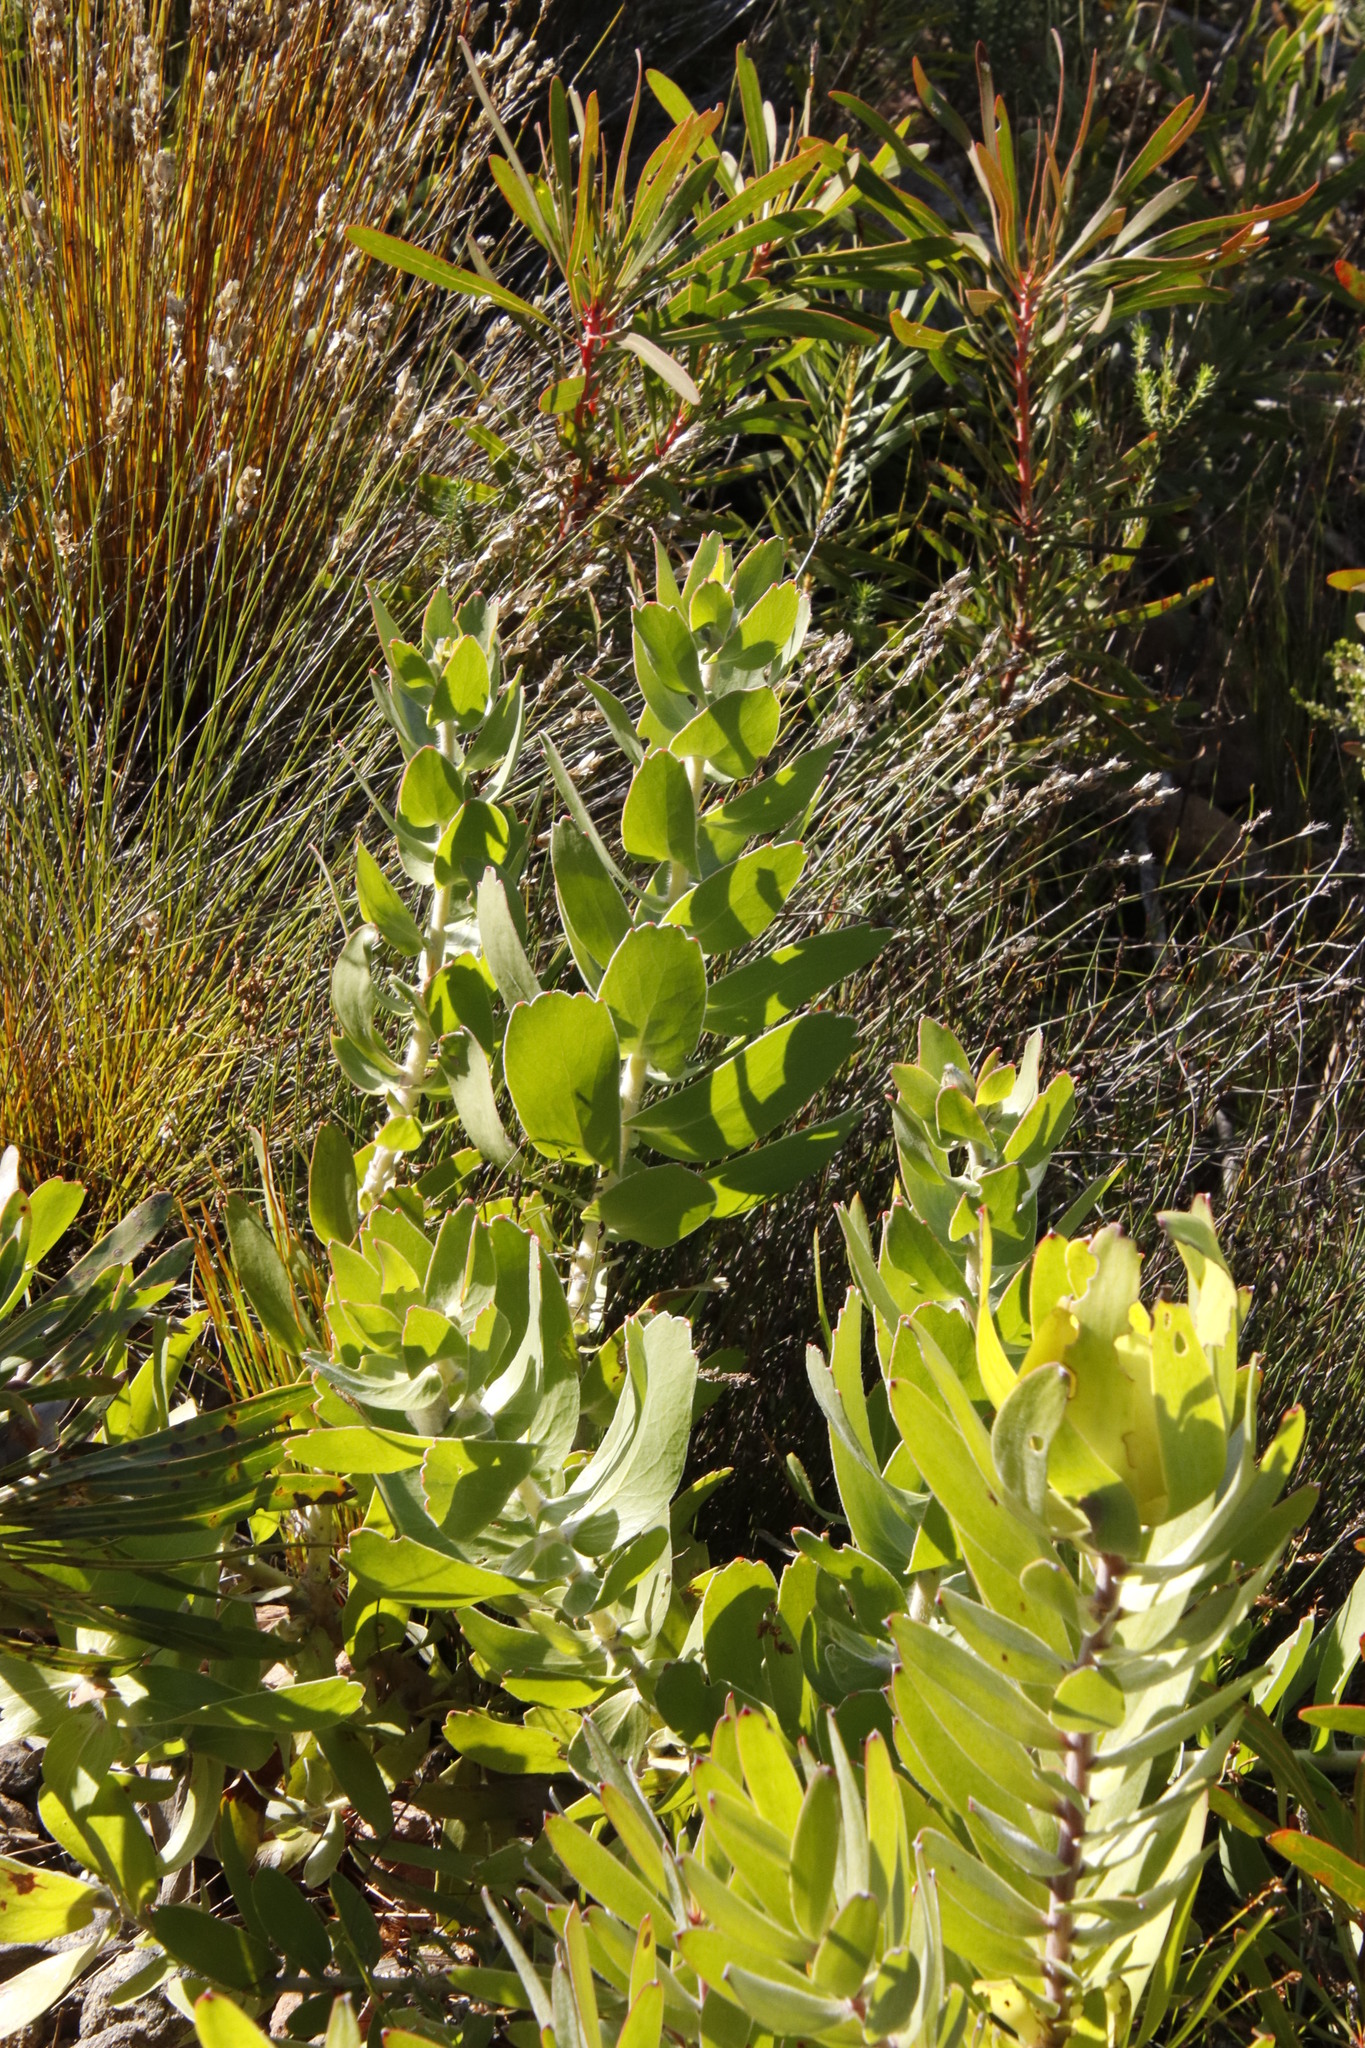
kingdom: Plantae
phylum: Tracheophyta
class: Magnoliopsida
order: Proteales
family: Proteaceae
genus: Leucospermum
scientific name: Leucospermum cordifolium
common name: Red pincushion-protea
